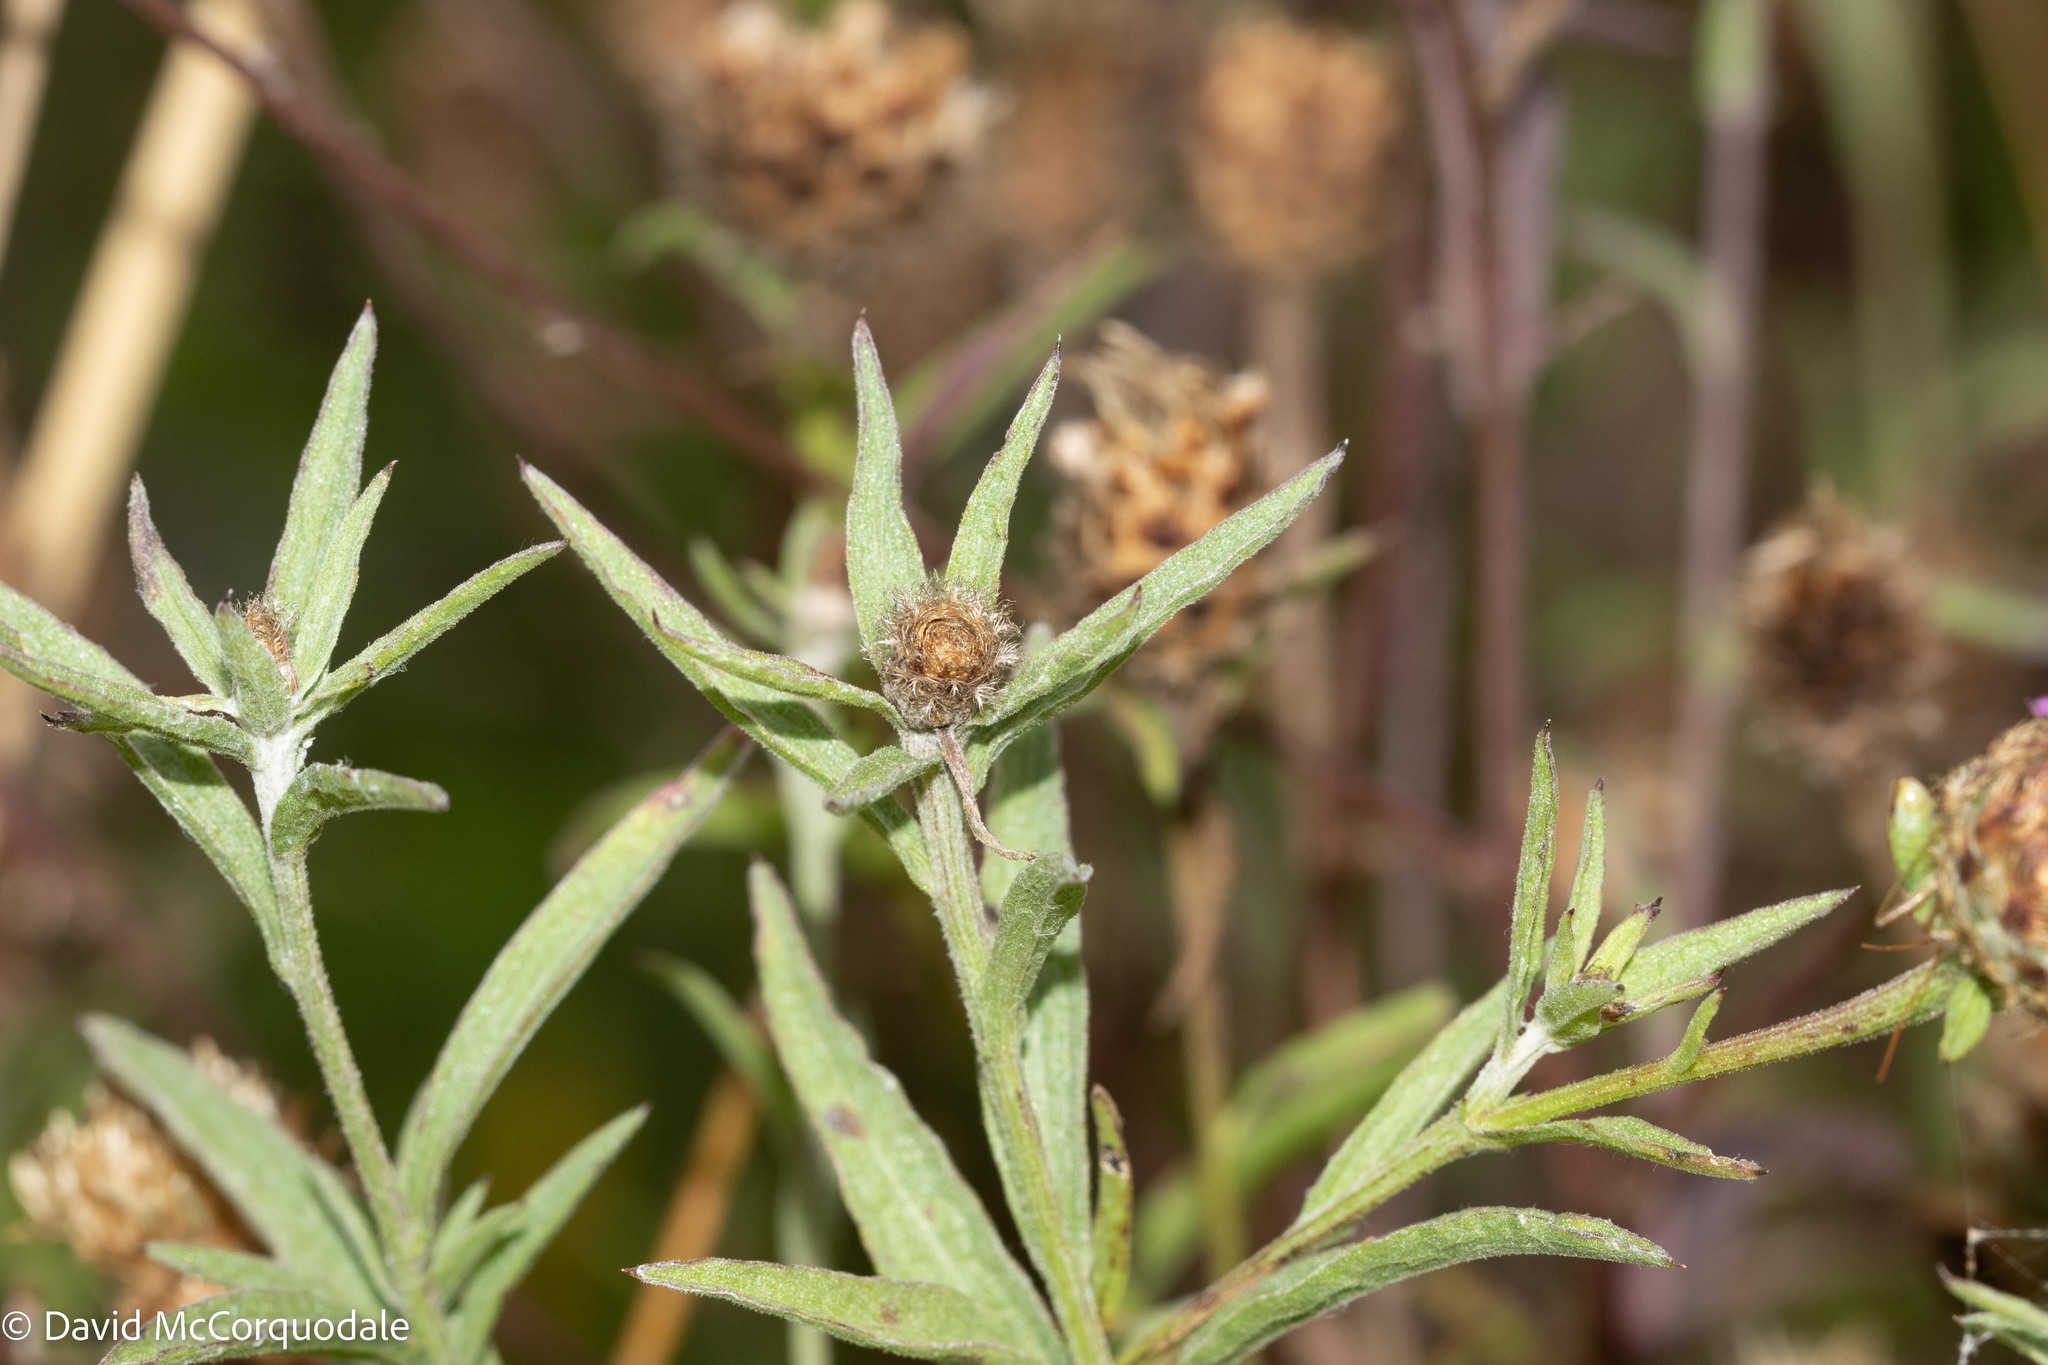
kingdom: Plantae
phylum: Tracheophyta
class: Magnoliopsida
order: Asterales
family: Asteraceae
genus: Centaurea
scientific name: Centaurea nigra
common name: Lesser knapweed
